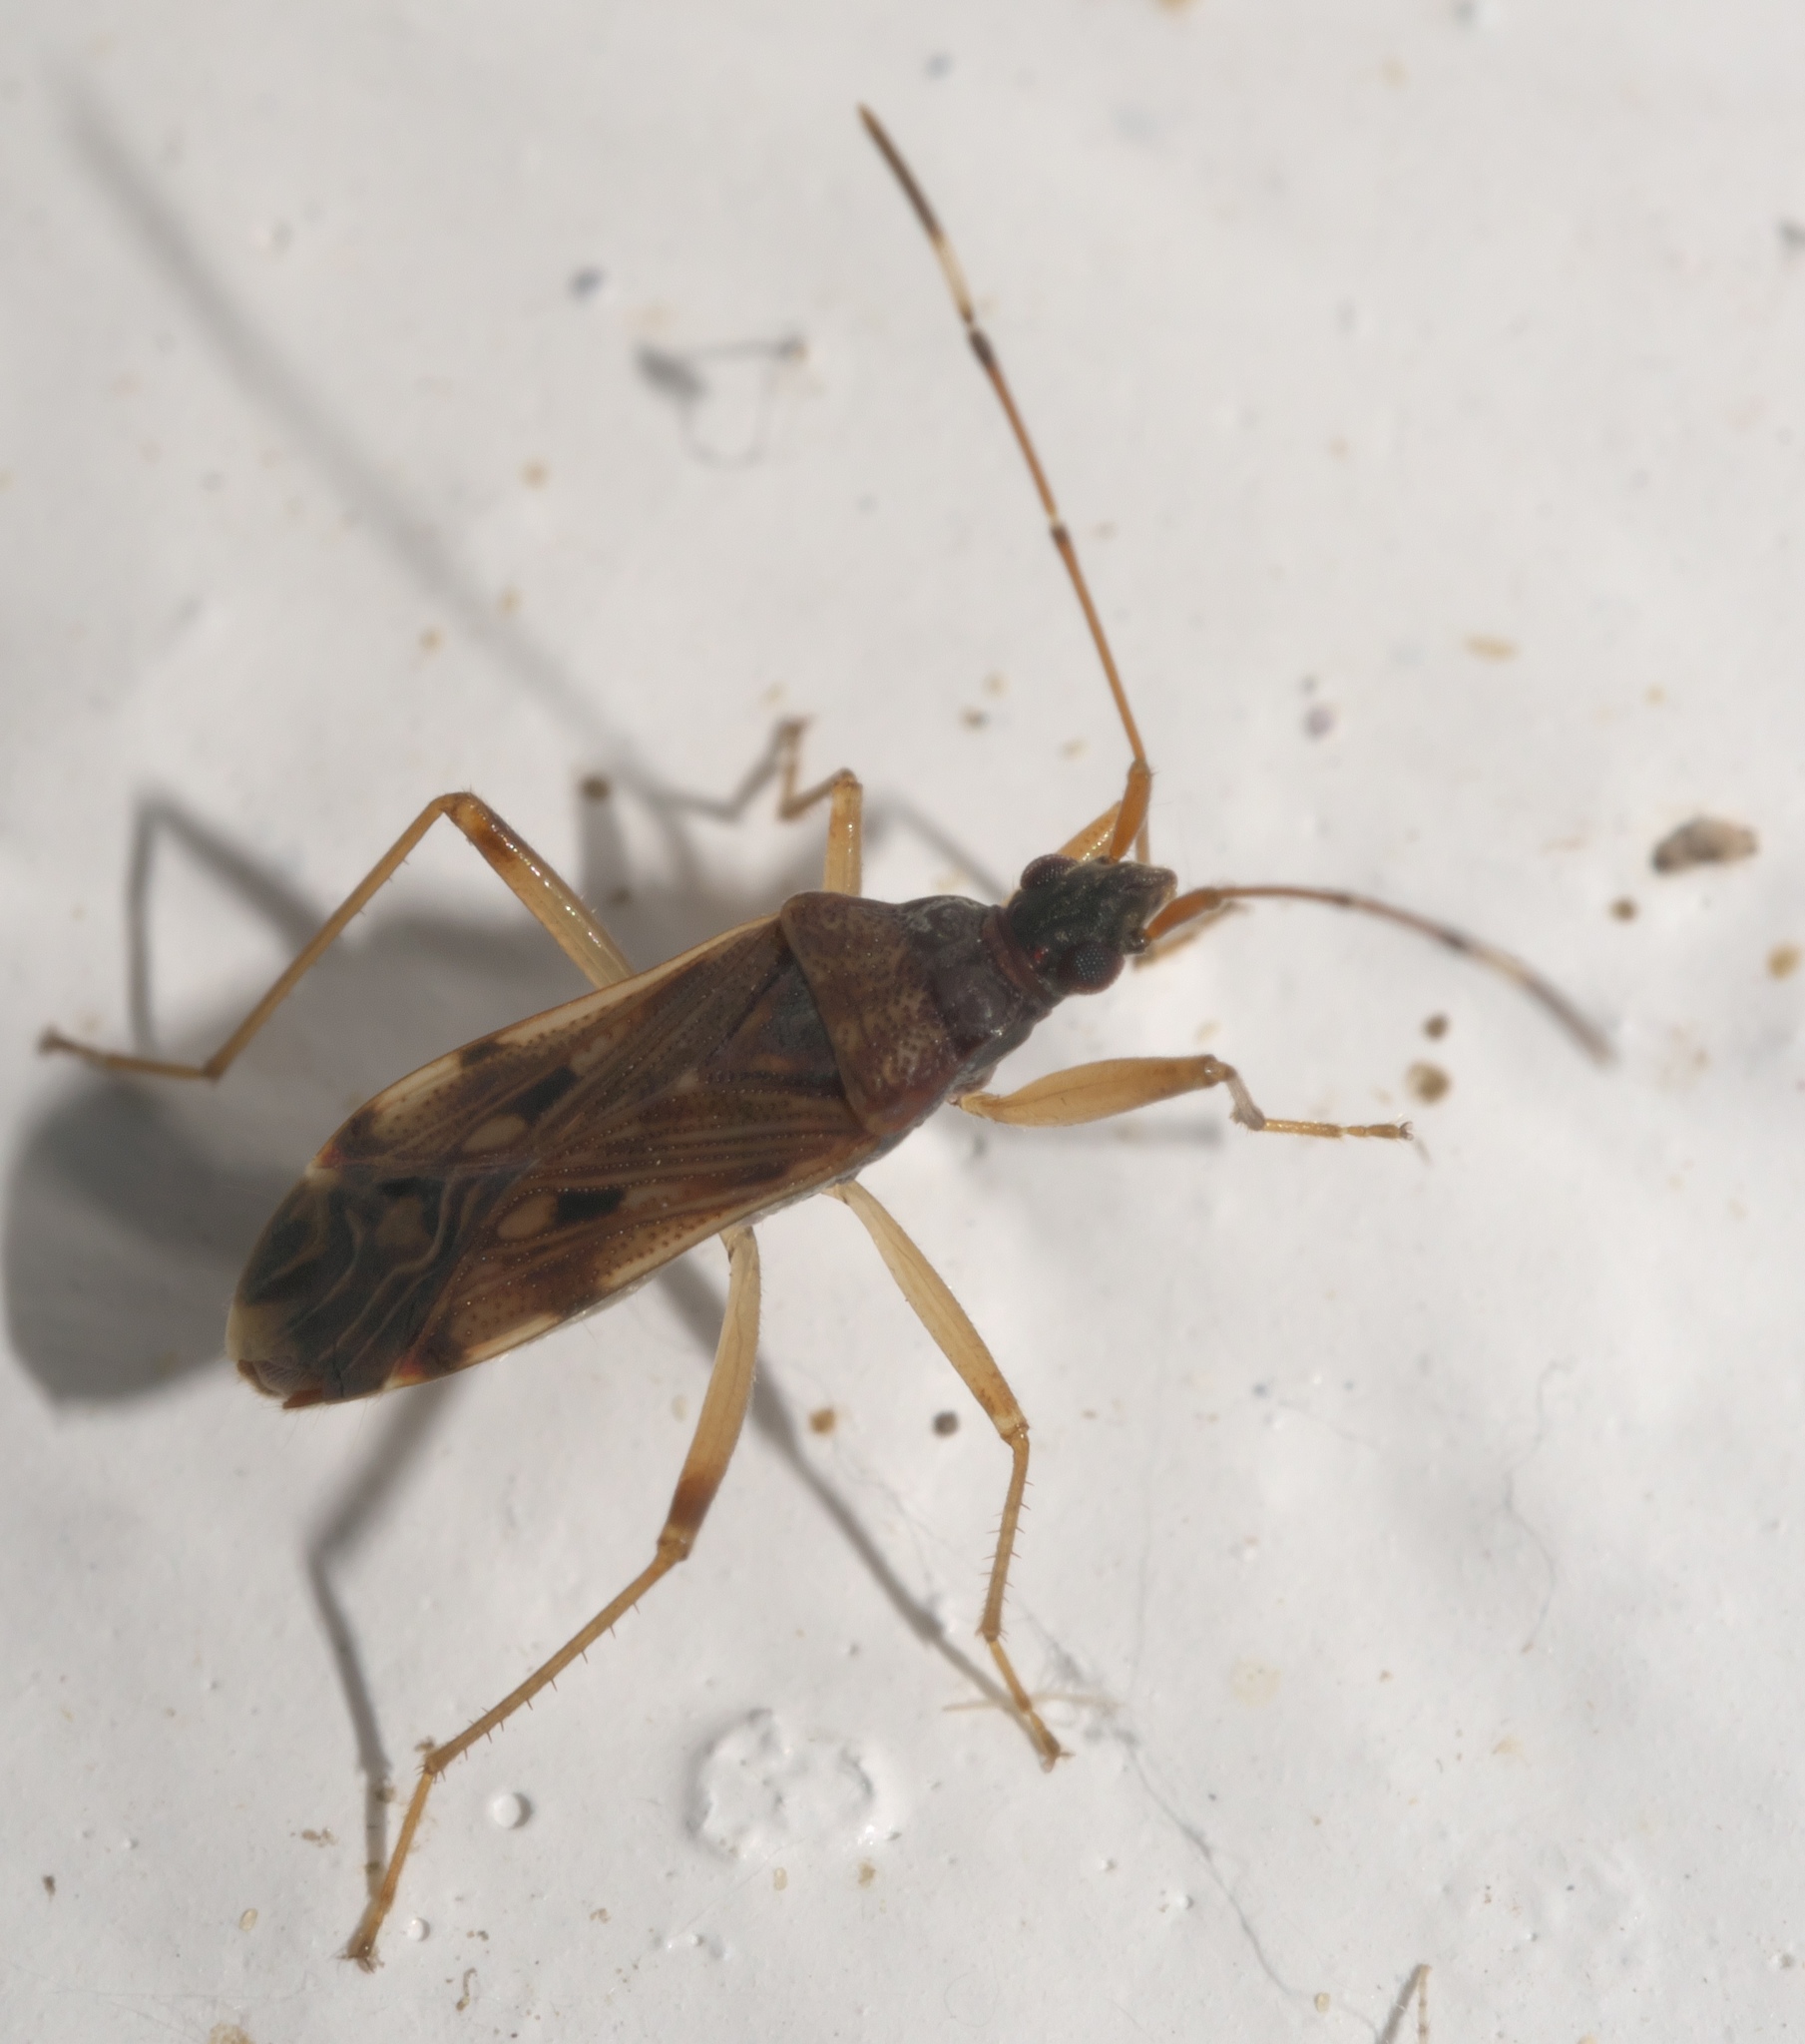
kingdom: Animalia
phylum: Arthropoda
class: Insecta
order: Hemiptera
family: Rhyparochromidae
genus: Ozophora
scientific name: Ozophora picturata
